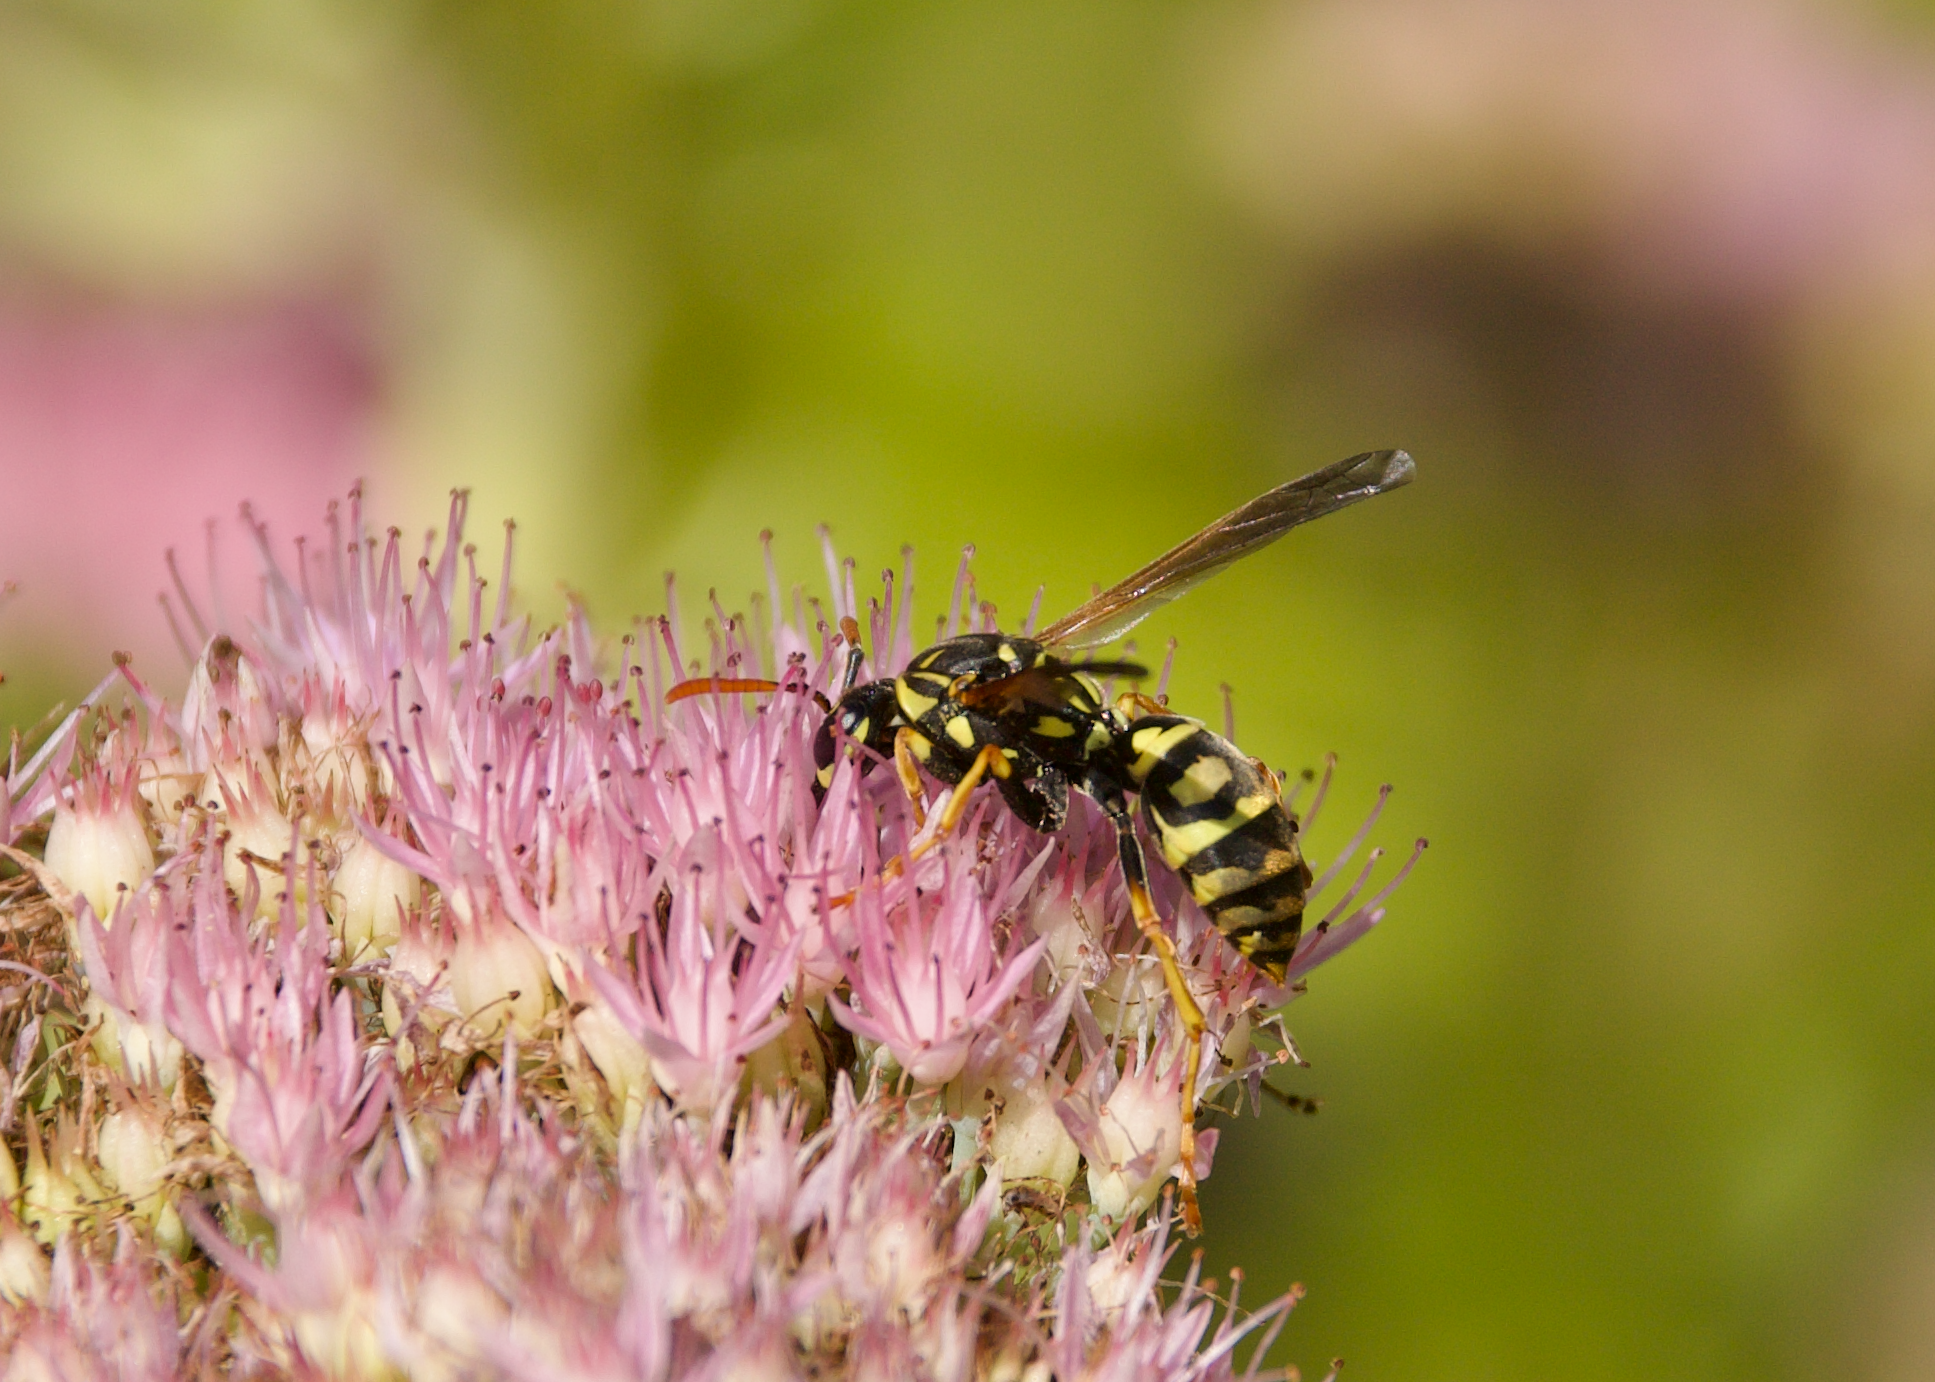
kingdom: Animalia
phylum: Arthropoda
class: Insecta
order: Hymenoptera
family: Eumenidae
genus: Polistes
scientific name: Polistes dominula
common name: Paper wasp
